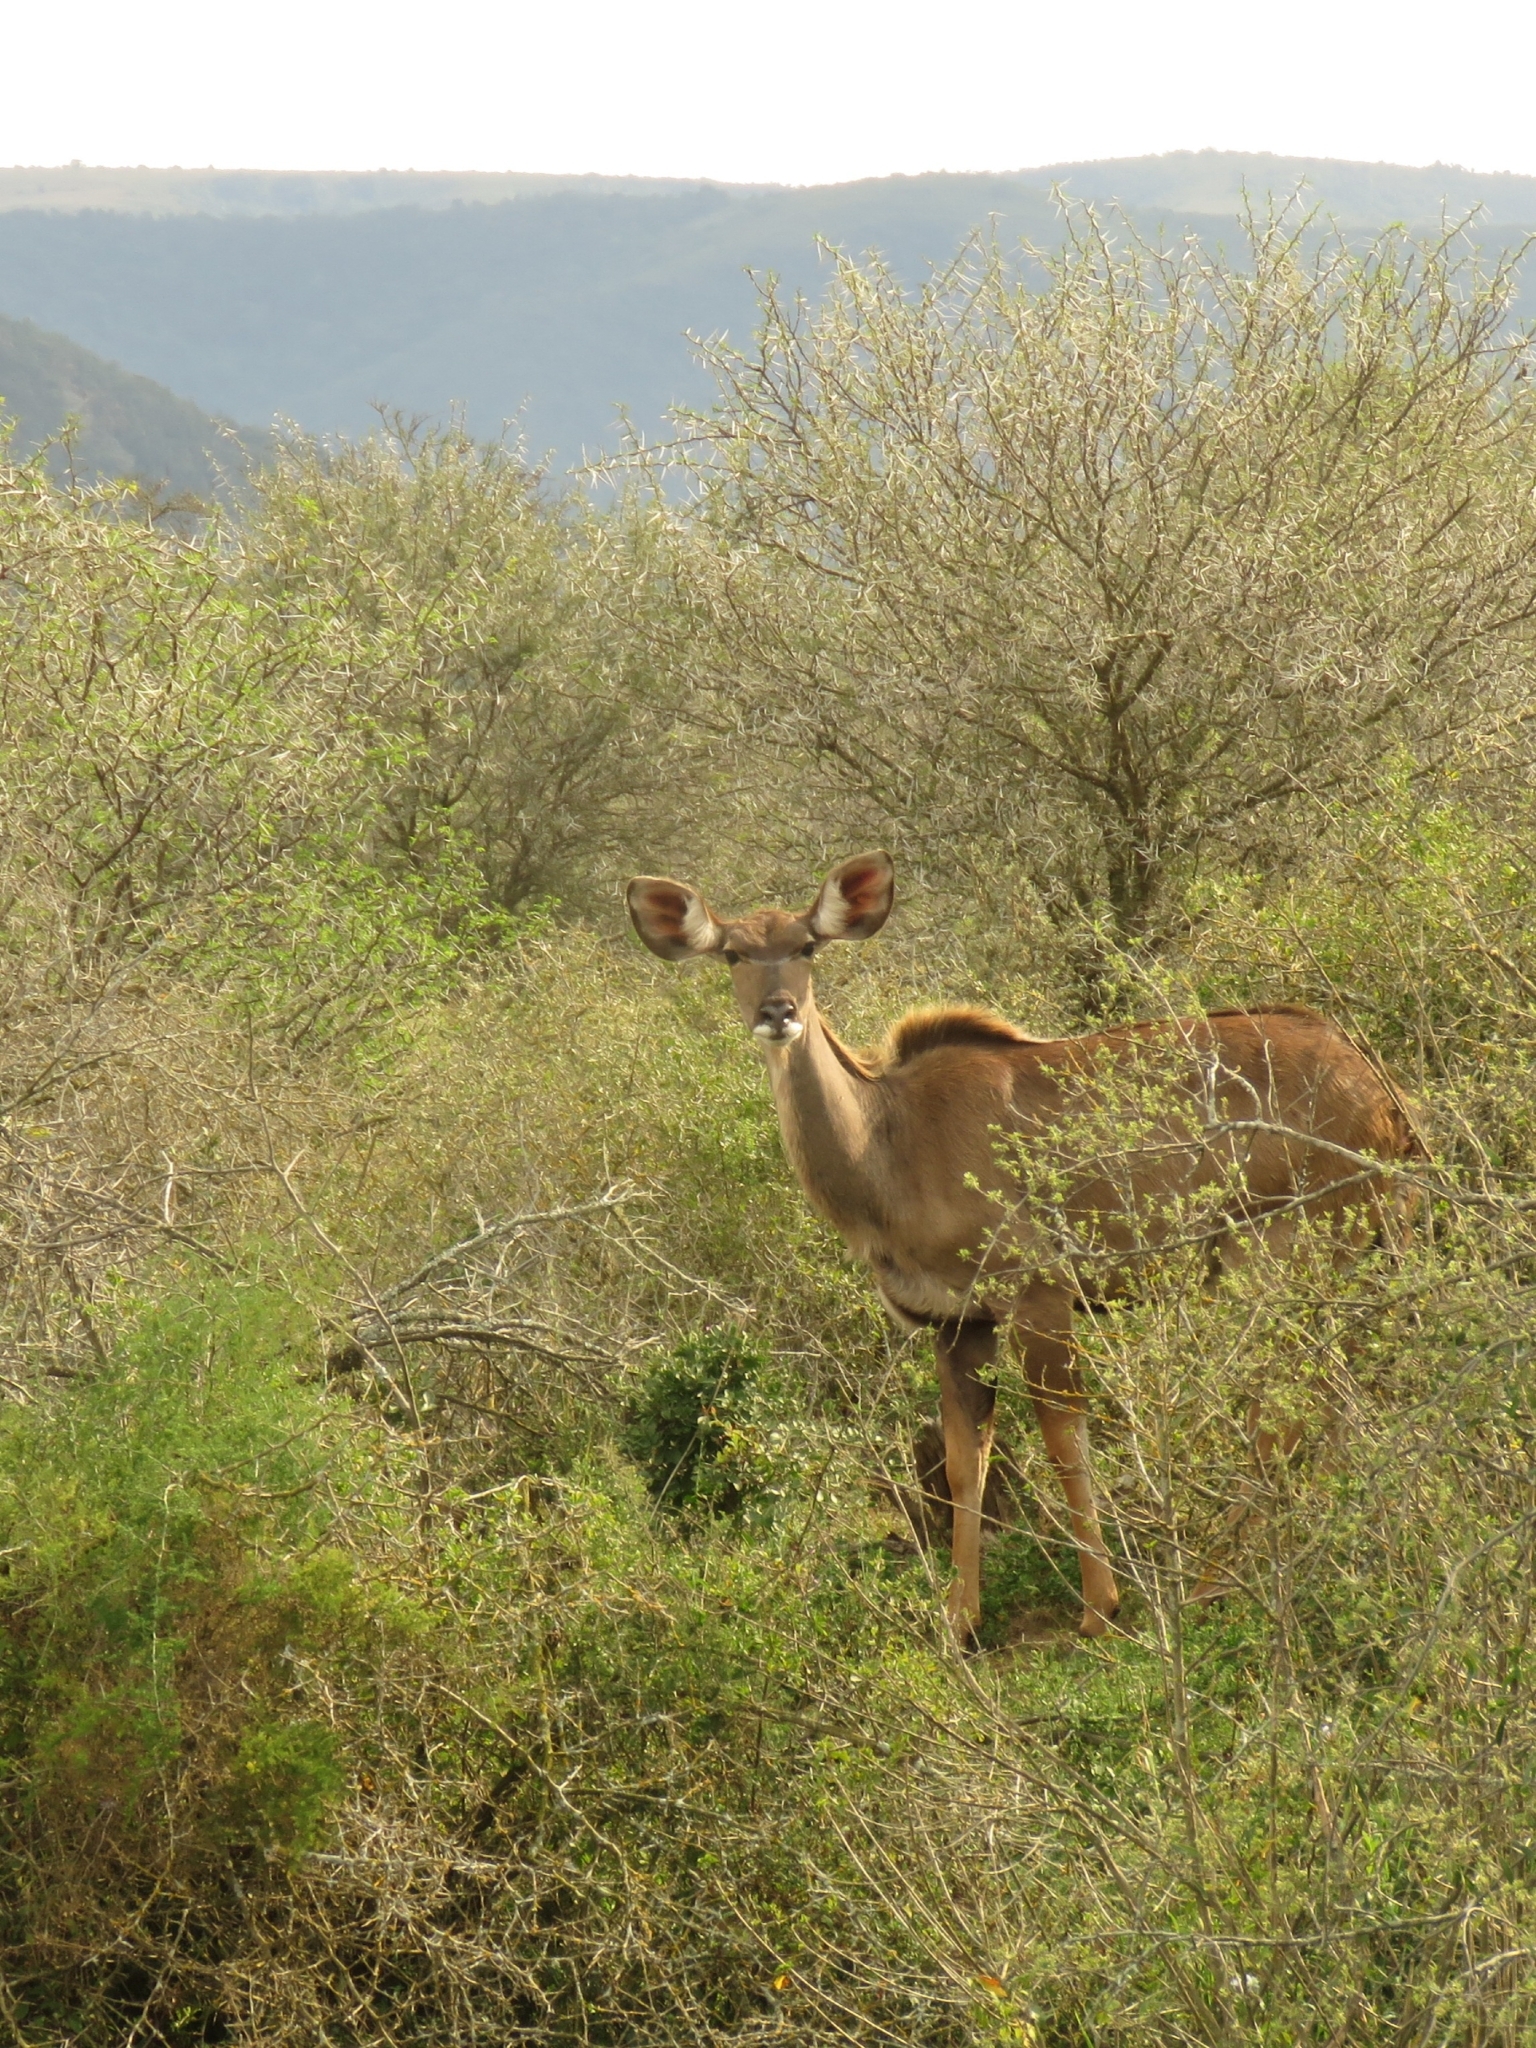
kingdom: Animalia
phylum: Chordata
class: Mammalia
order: Artiodactyla
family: Bovidae
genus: Tragelaphus
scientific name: Tragelaphus strepsiceros
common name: Greater kudu
